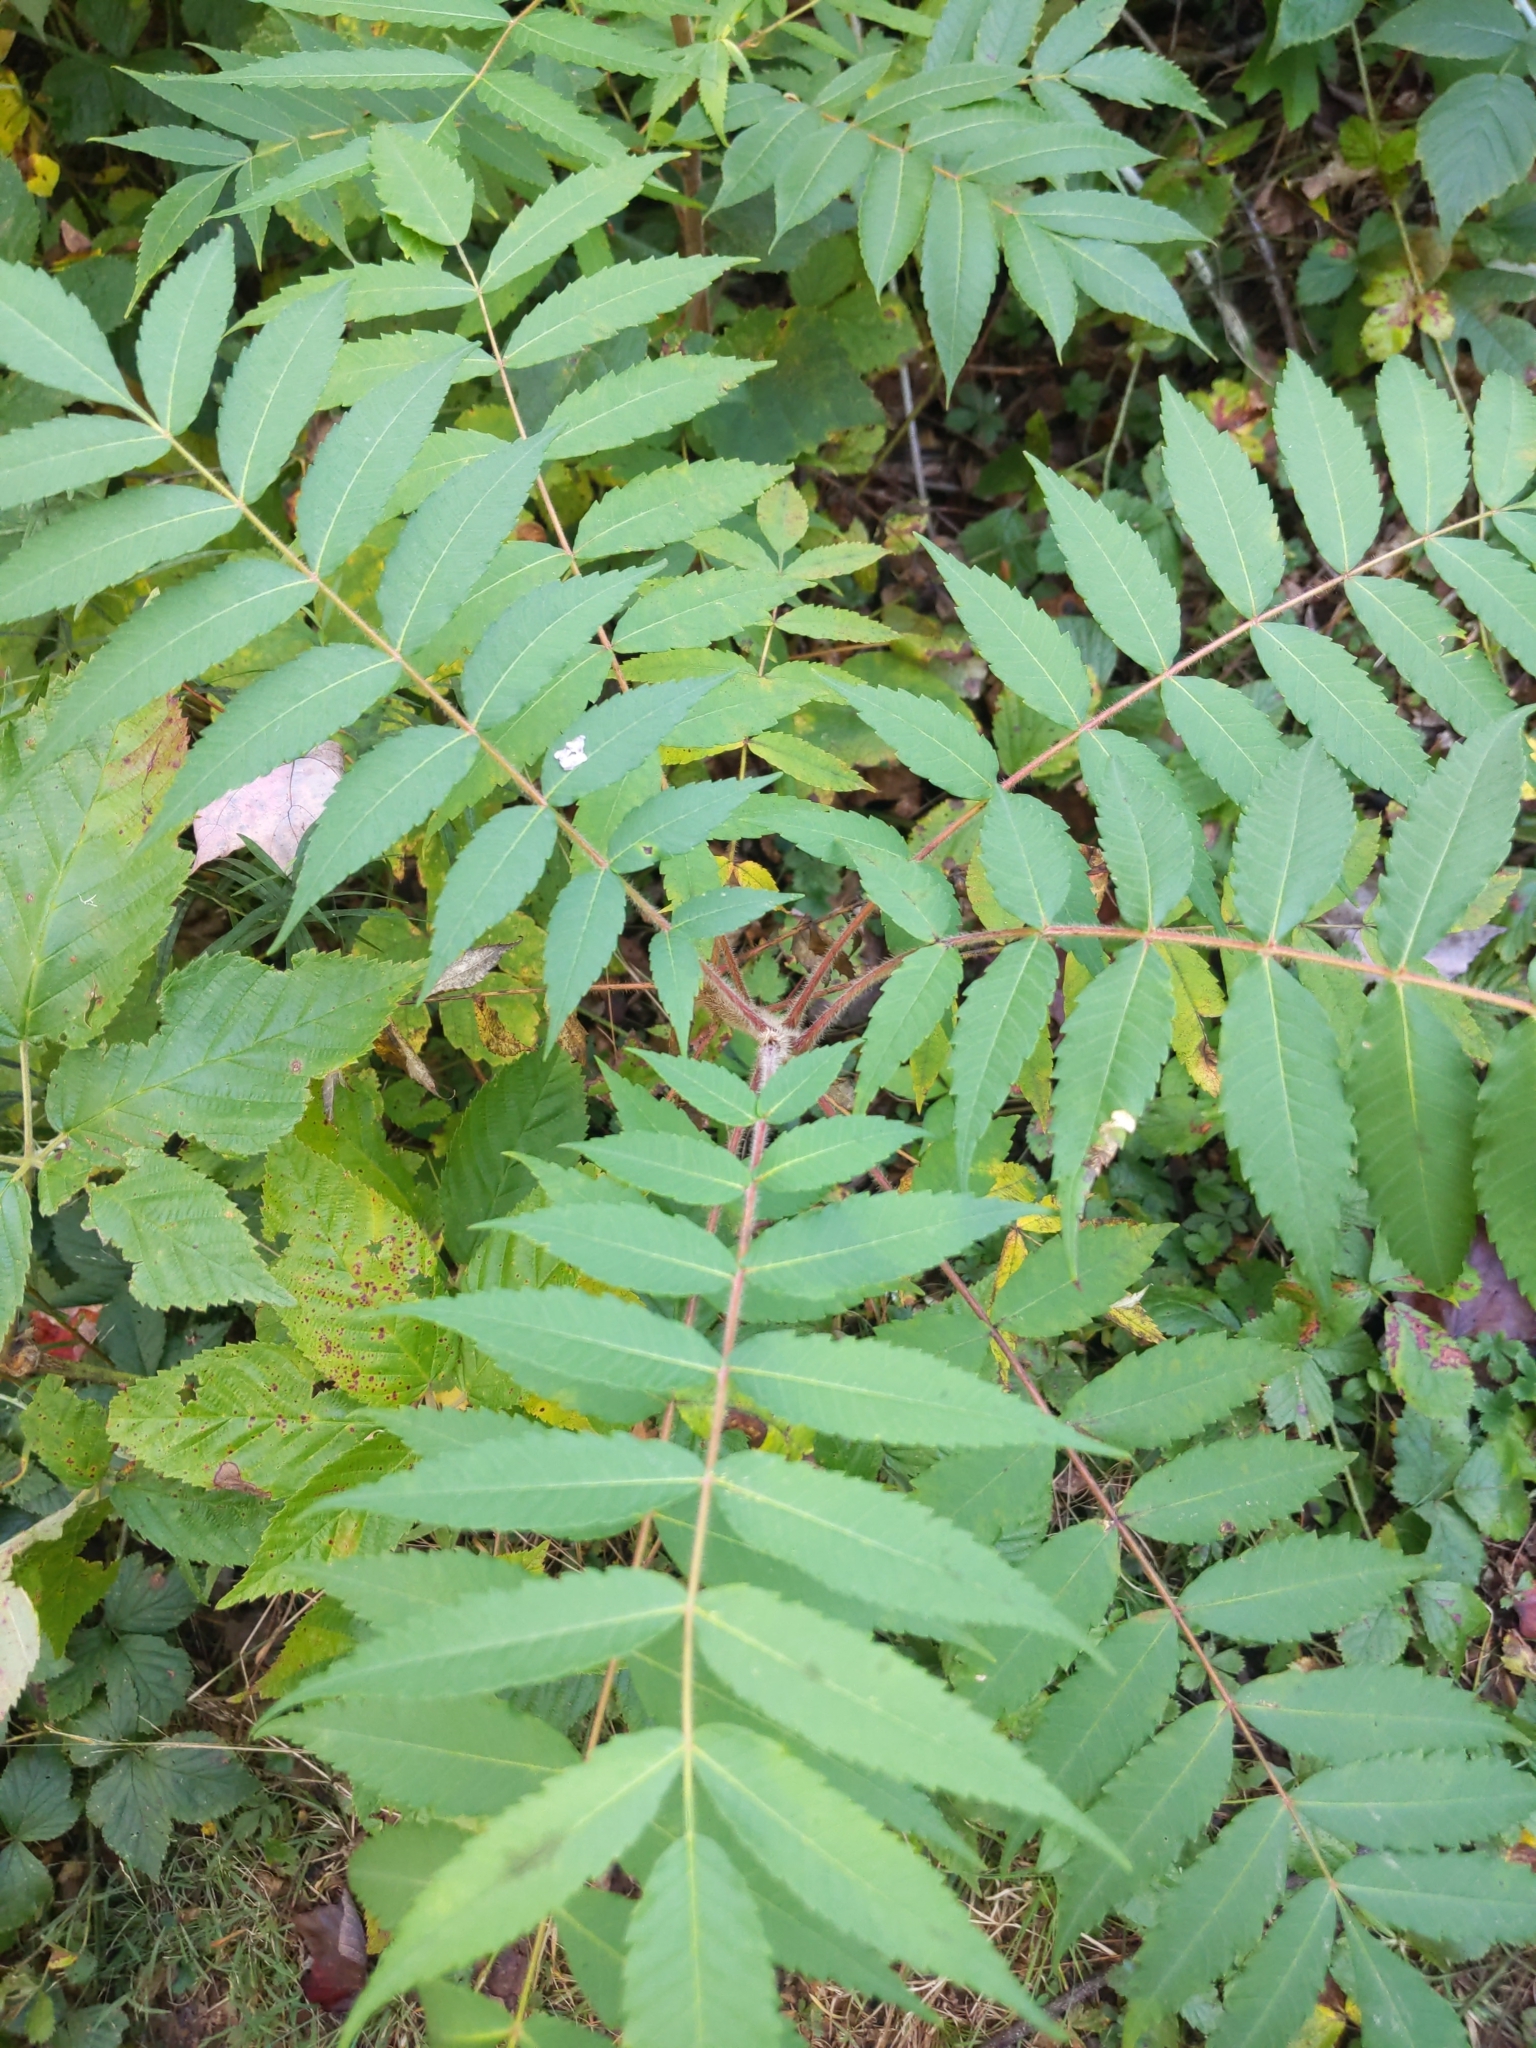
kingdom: Plantae
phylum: Tracheophyta
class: Magnoliopsida
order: Sapindales
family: Anacardiaceae
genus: Rhus
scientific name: Rhus typhina
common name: Staghorn sumac
